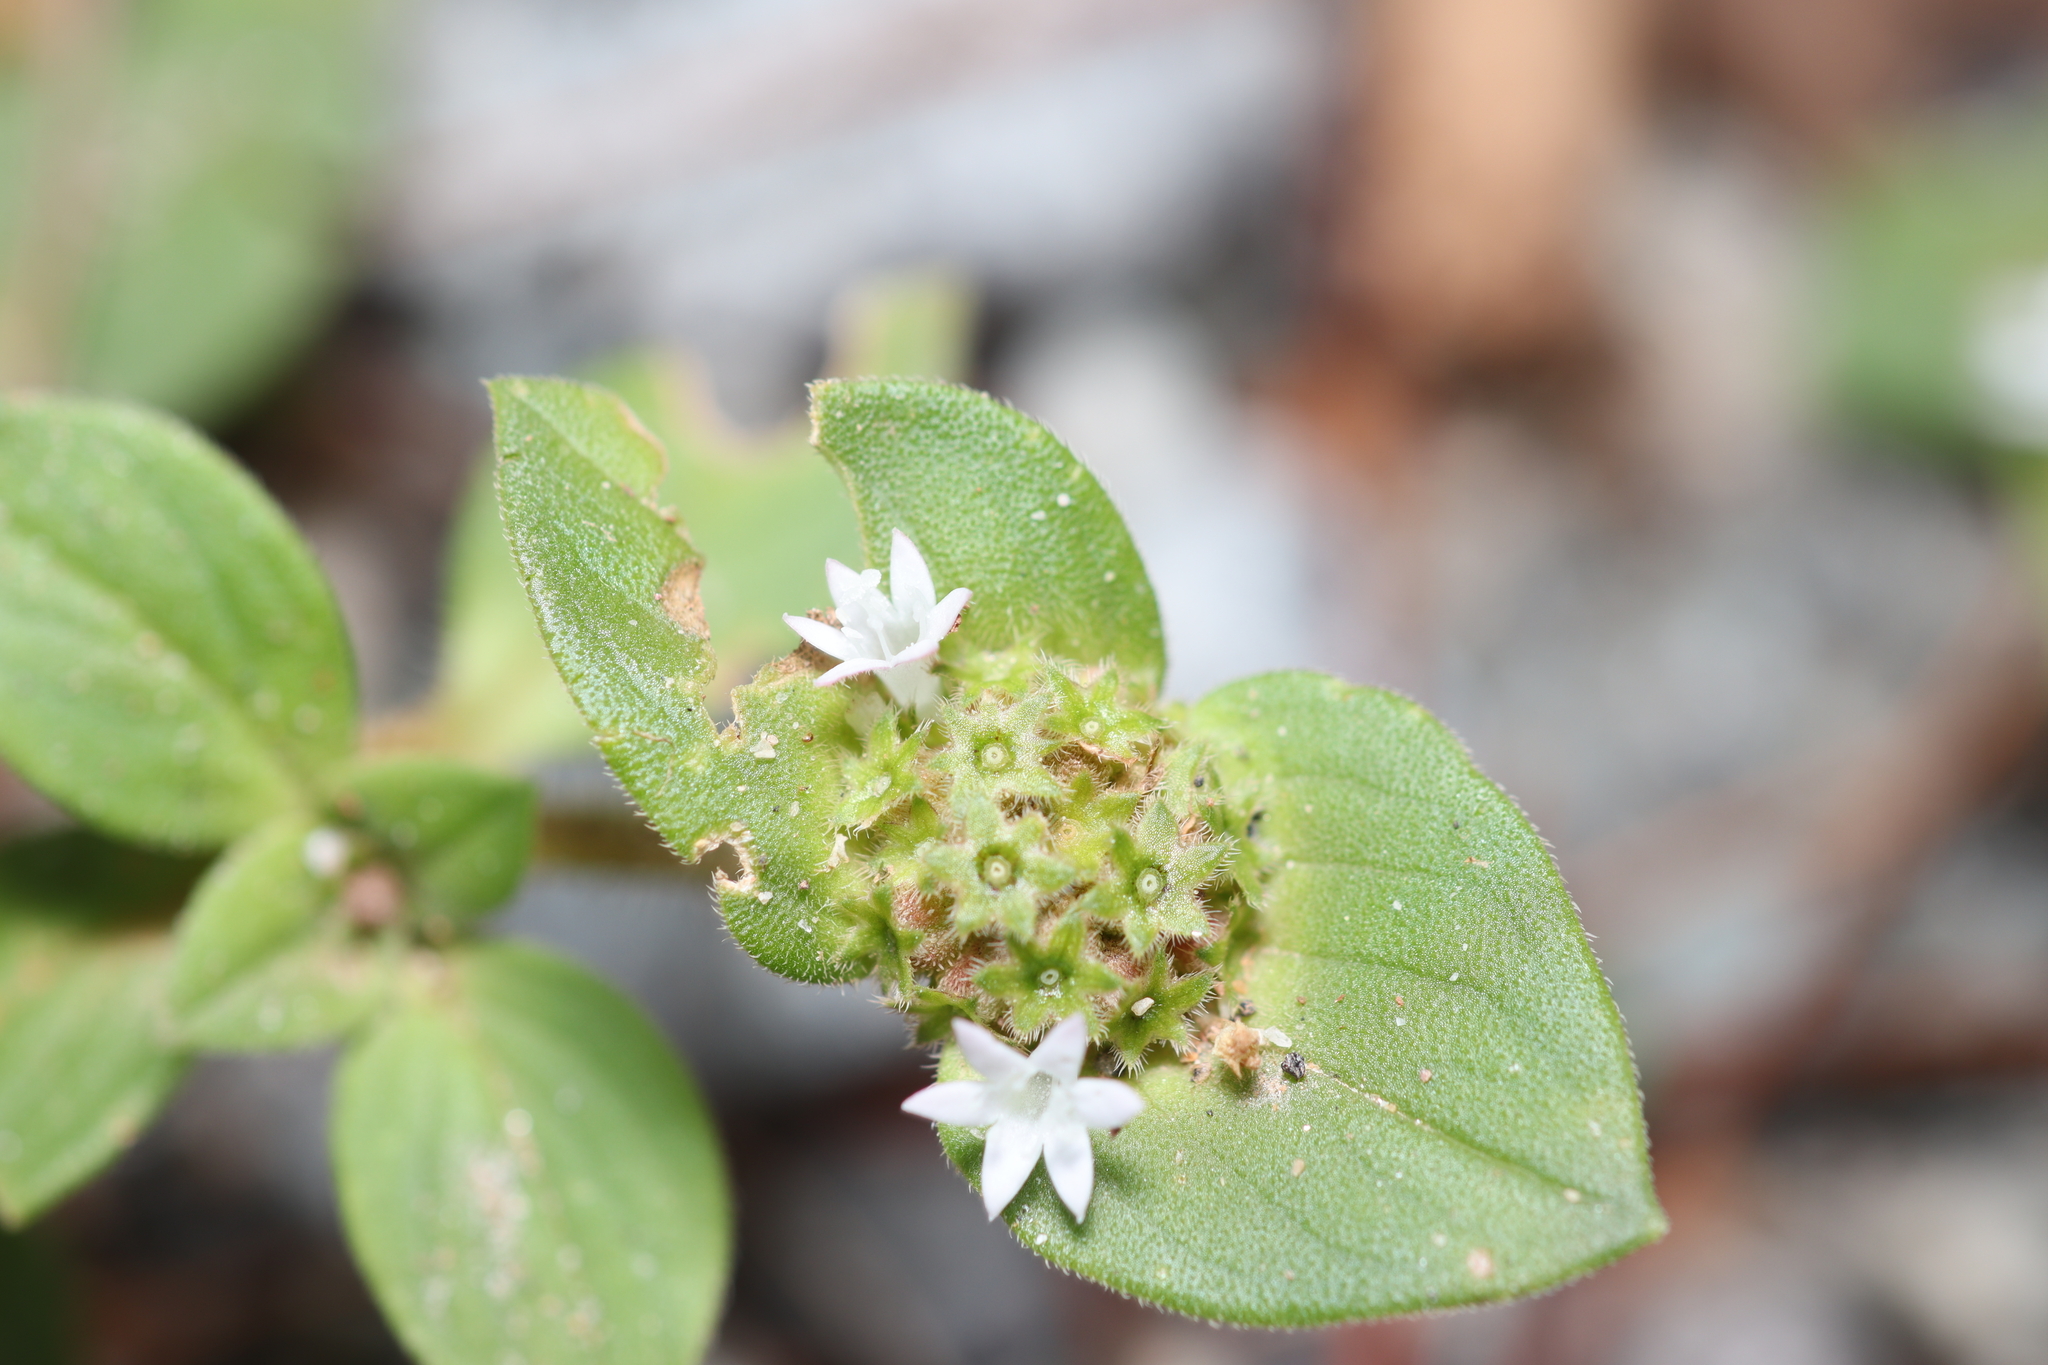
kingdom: Plantae
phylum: Tracheophyta
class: Magnoliopsida
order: Gentianales
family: Rubiaceae
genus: Richardia
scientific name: Richardia brasiliensis
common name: Tropical mexican clover
